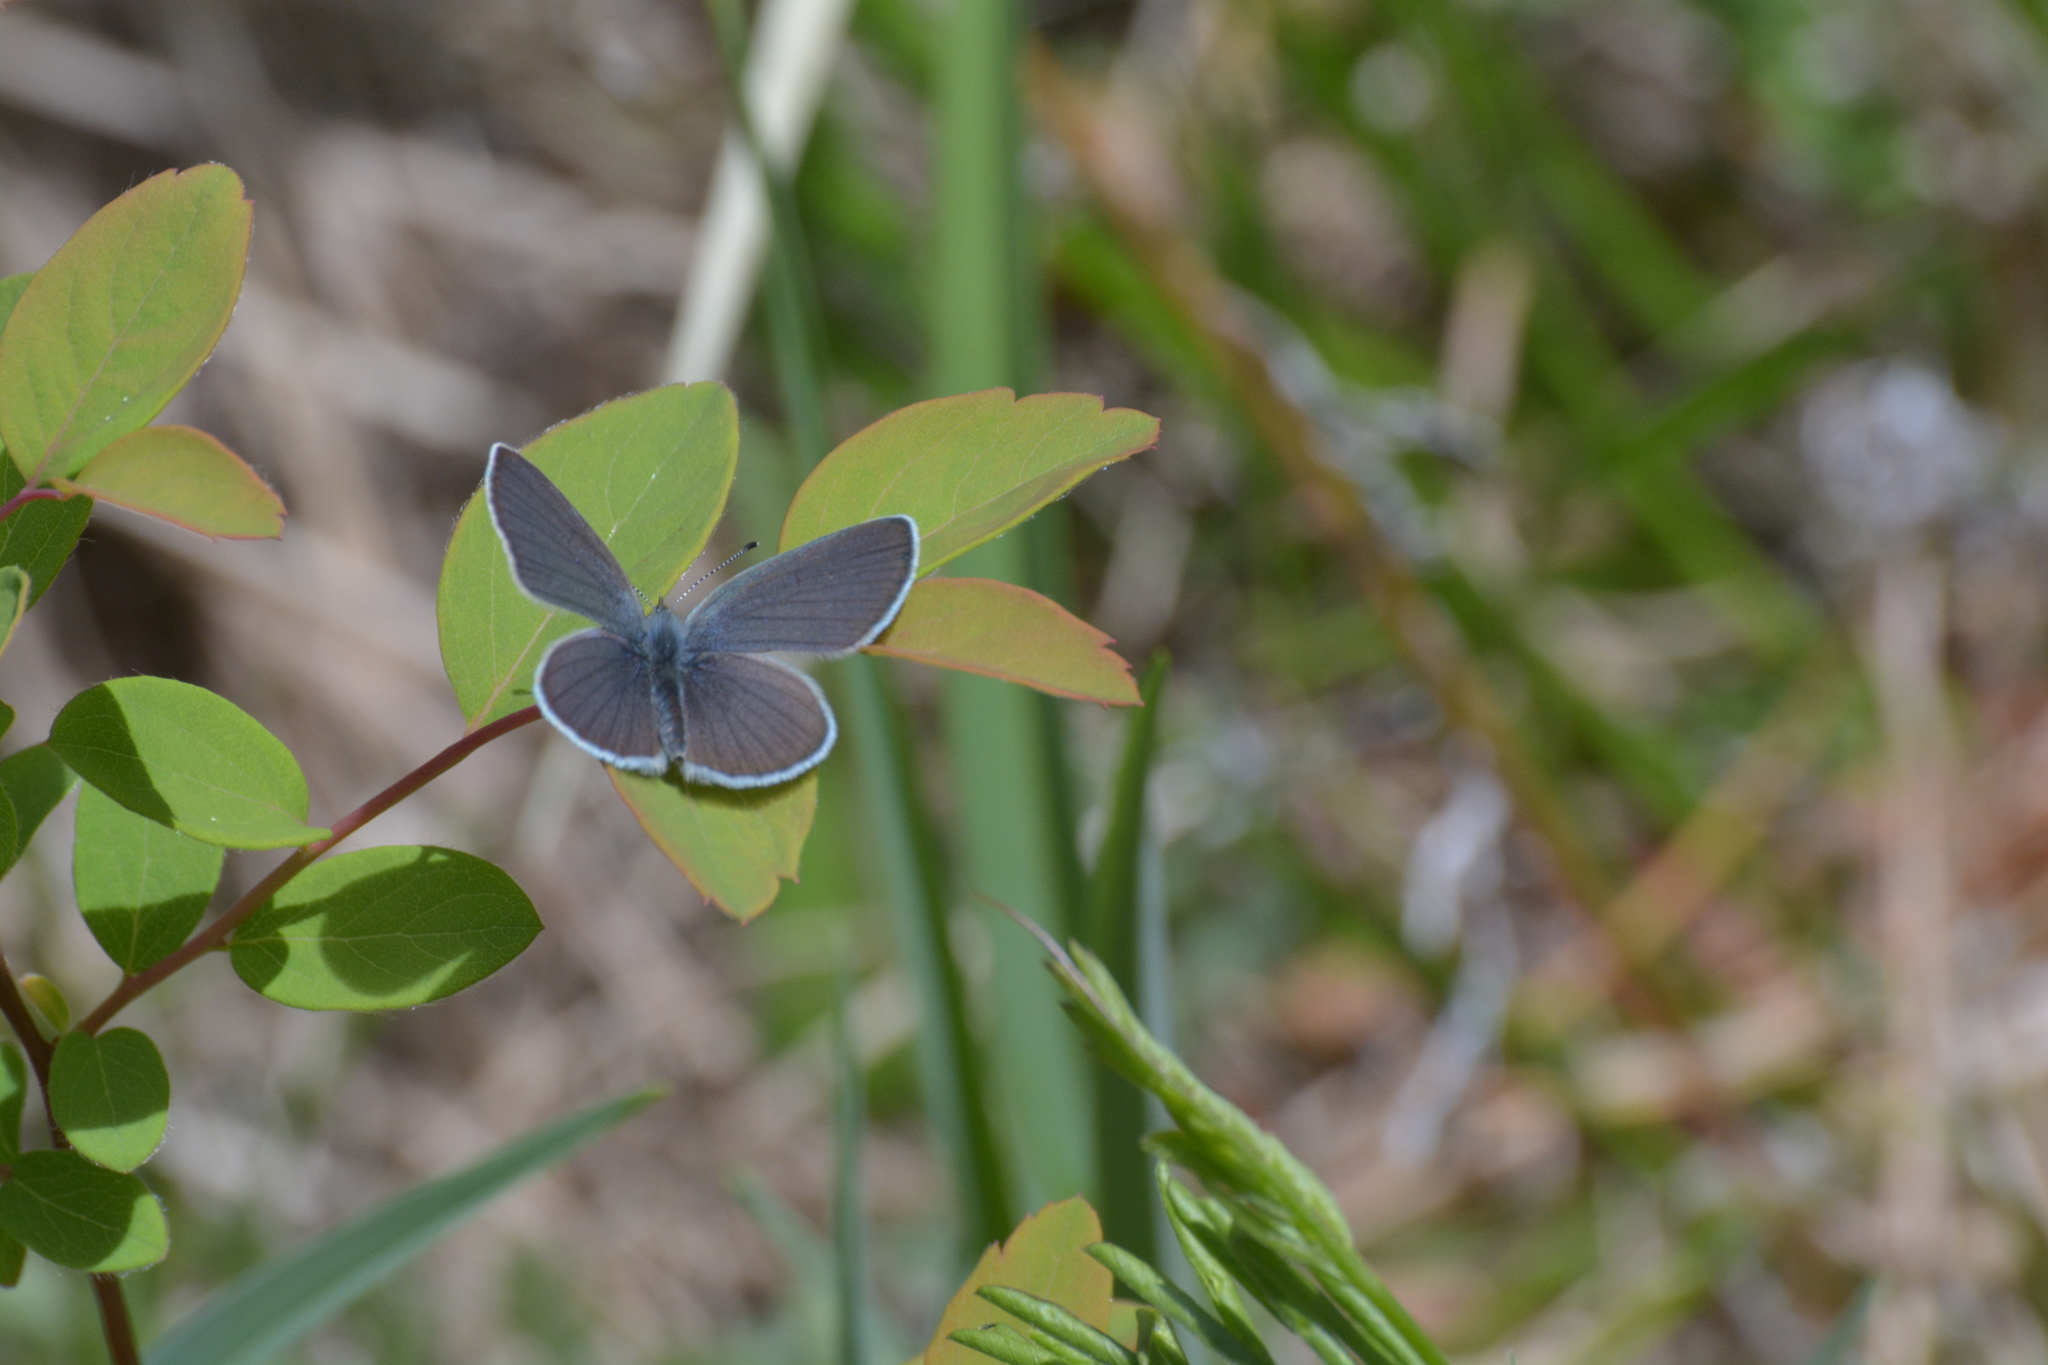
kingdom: Animalia
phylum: Arthropoda
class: Insecta
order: Lepidoptera
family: Lycaenidae
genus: Everes
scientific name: Everes sebrus
